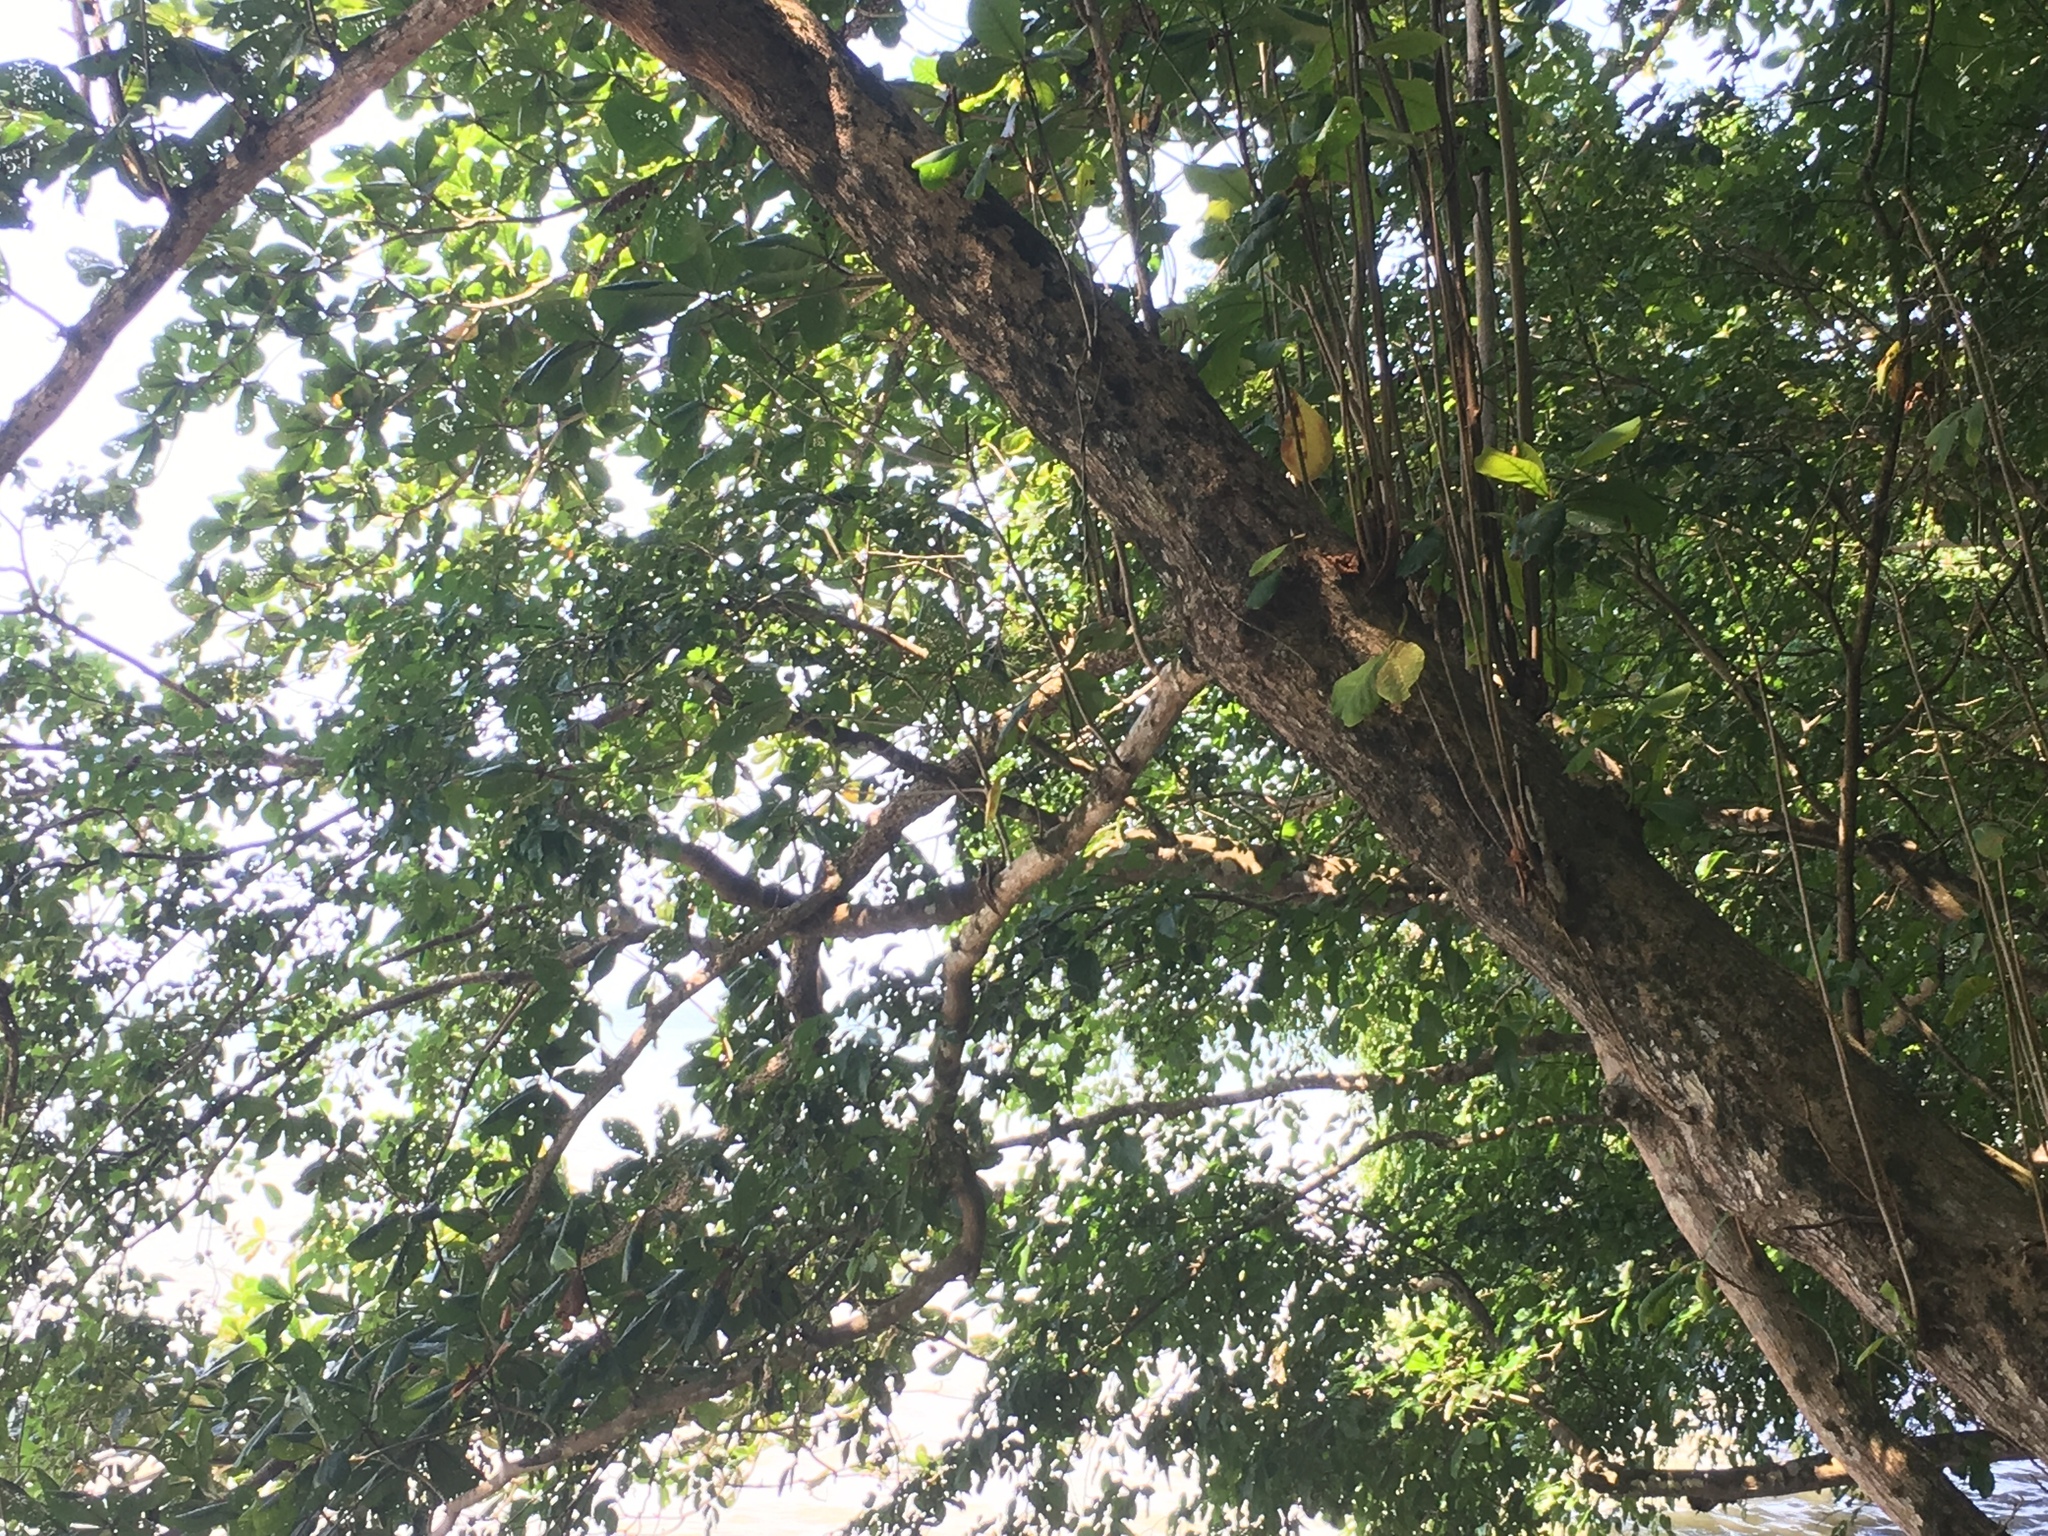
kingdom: Plantae
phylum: Tracheophyta
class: Magnoliopsida
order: Myrtales
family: Combretaceae
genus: Terminalia
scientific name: Terminalia catappa
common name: Tropical almond
